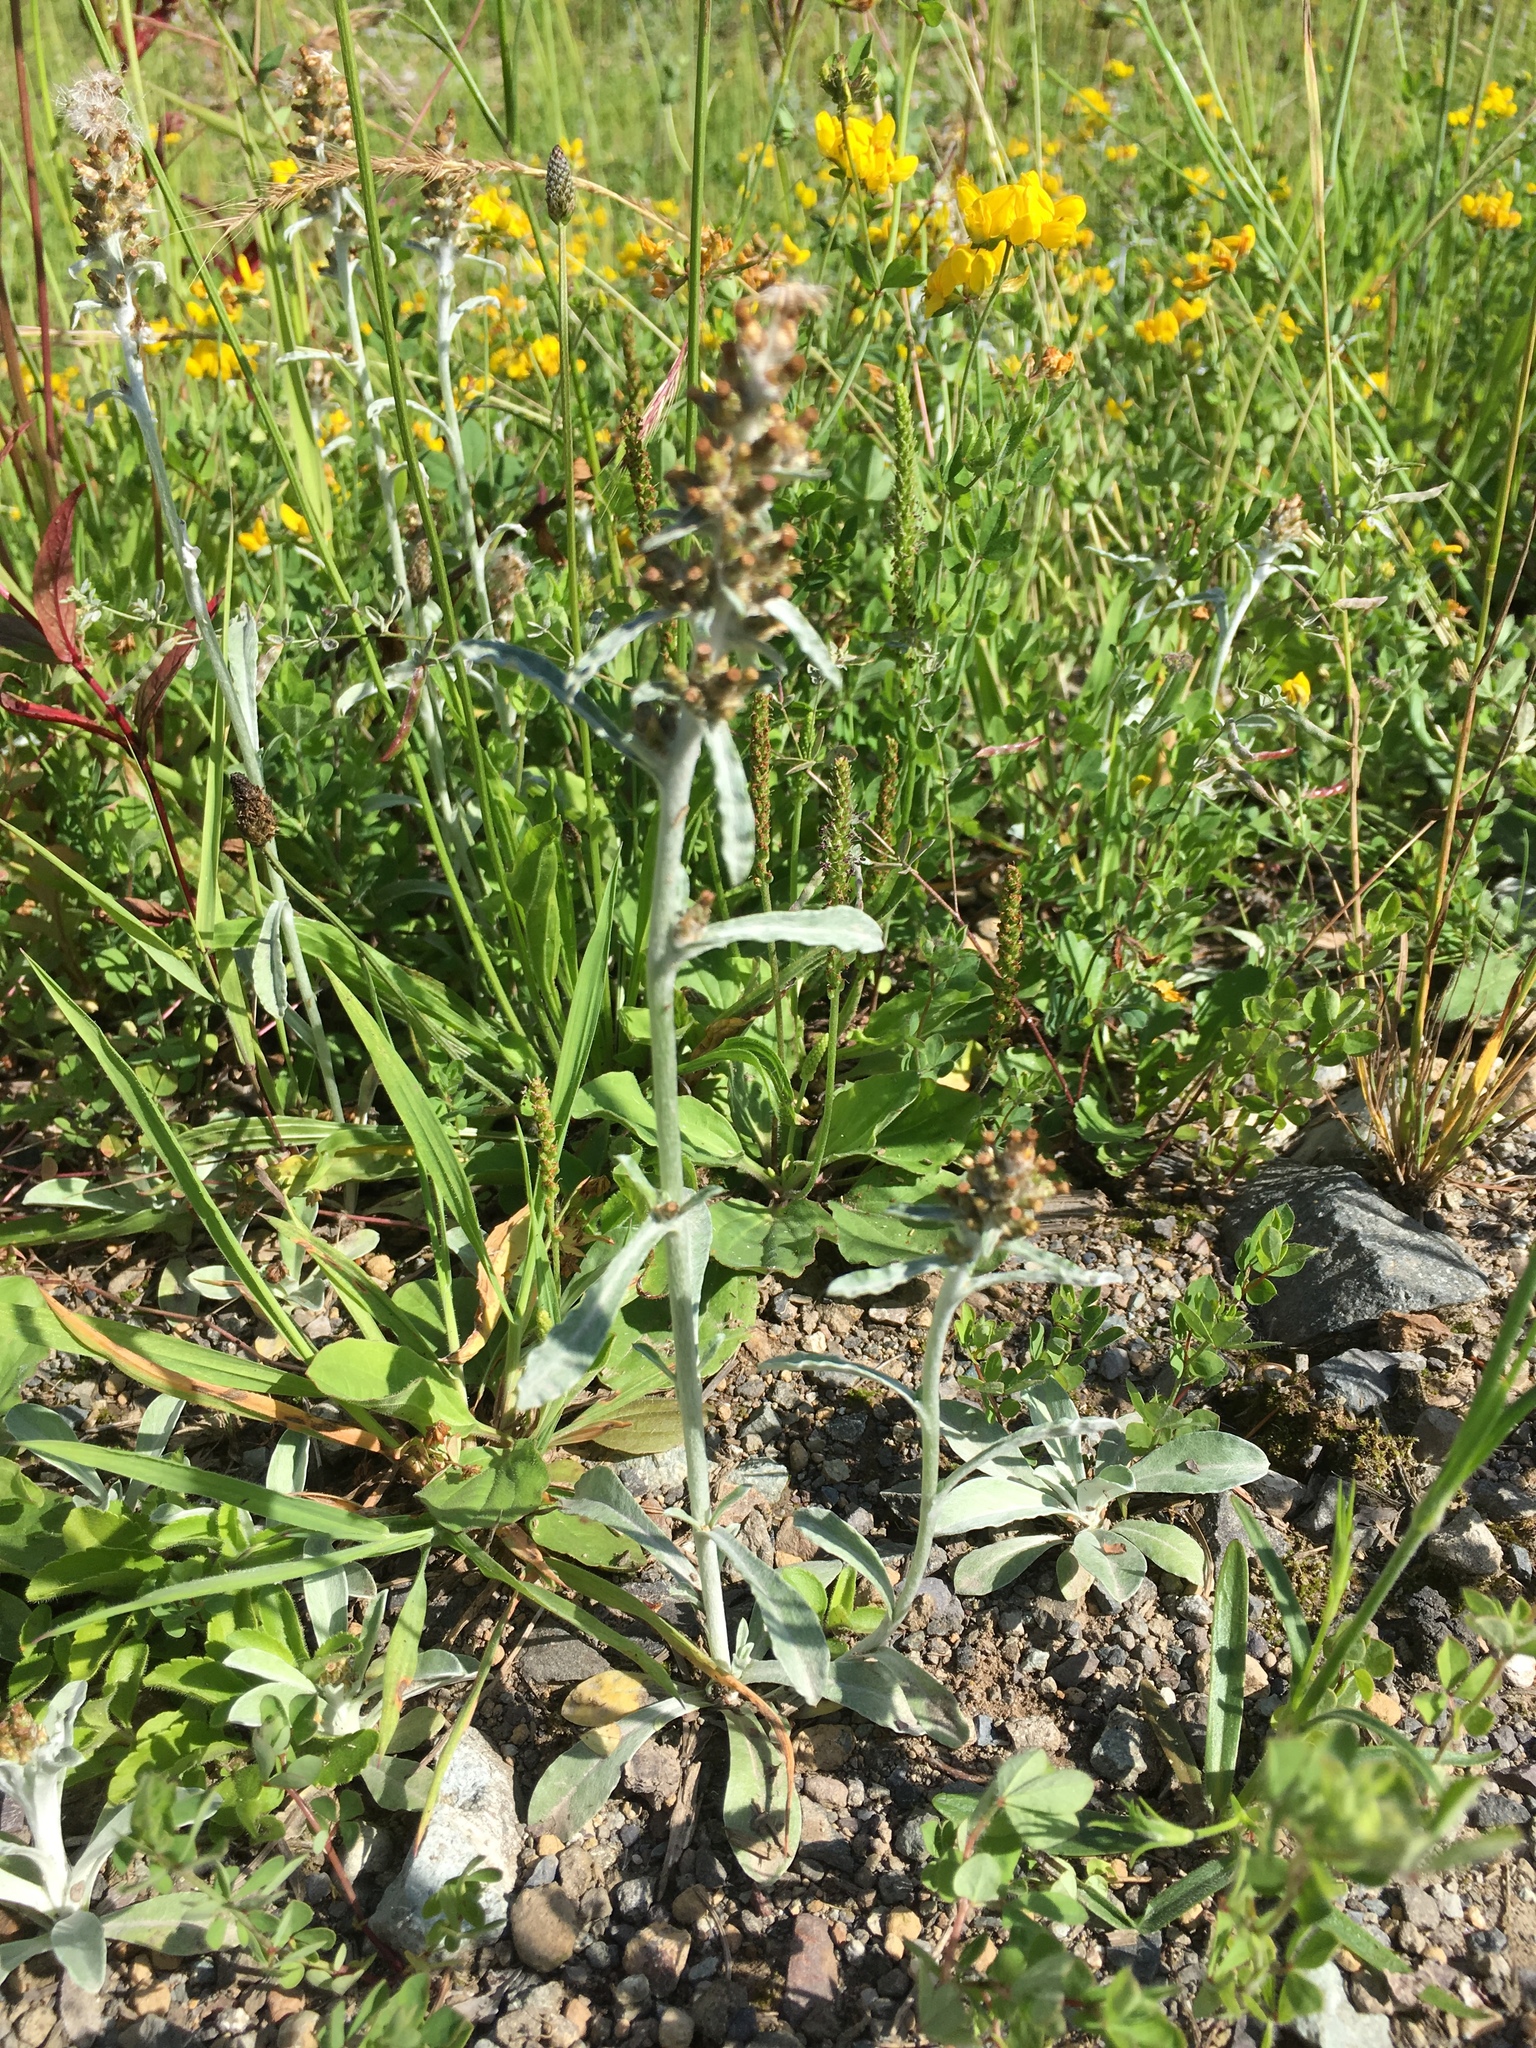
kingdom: Plantae
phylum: Tracheophyta
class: Magnoliopsida
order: Asterales
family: Asteraceae
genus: Gamochaeta
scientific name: Gamochaeta ustulata
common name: Pacific cudweed
